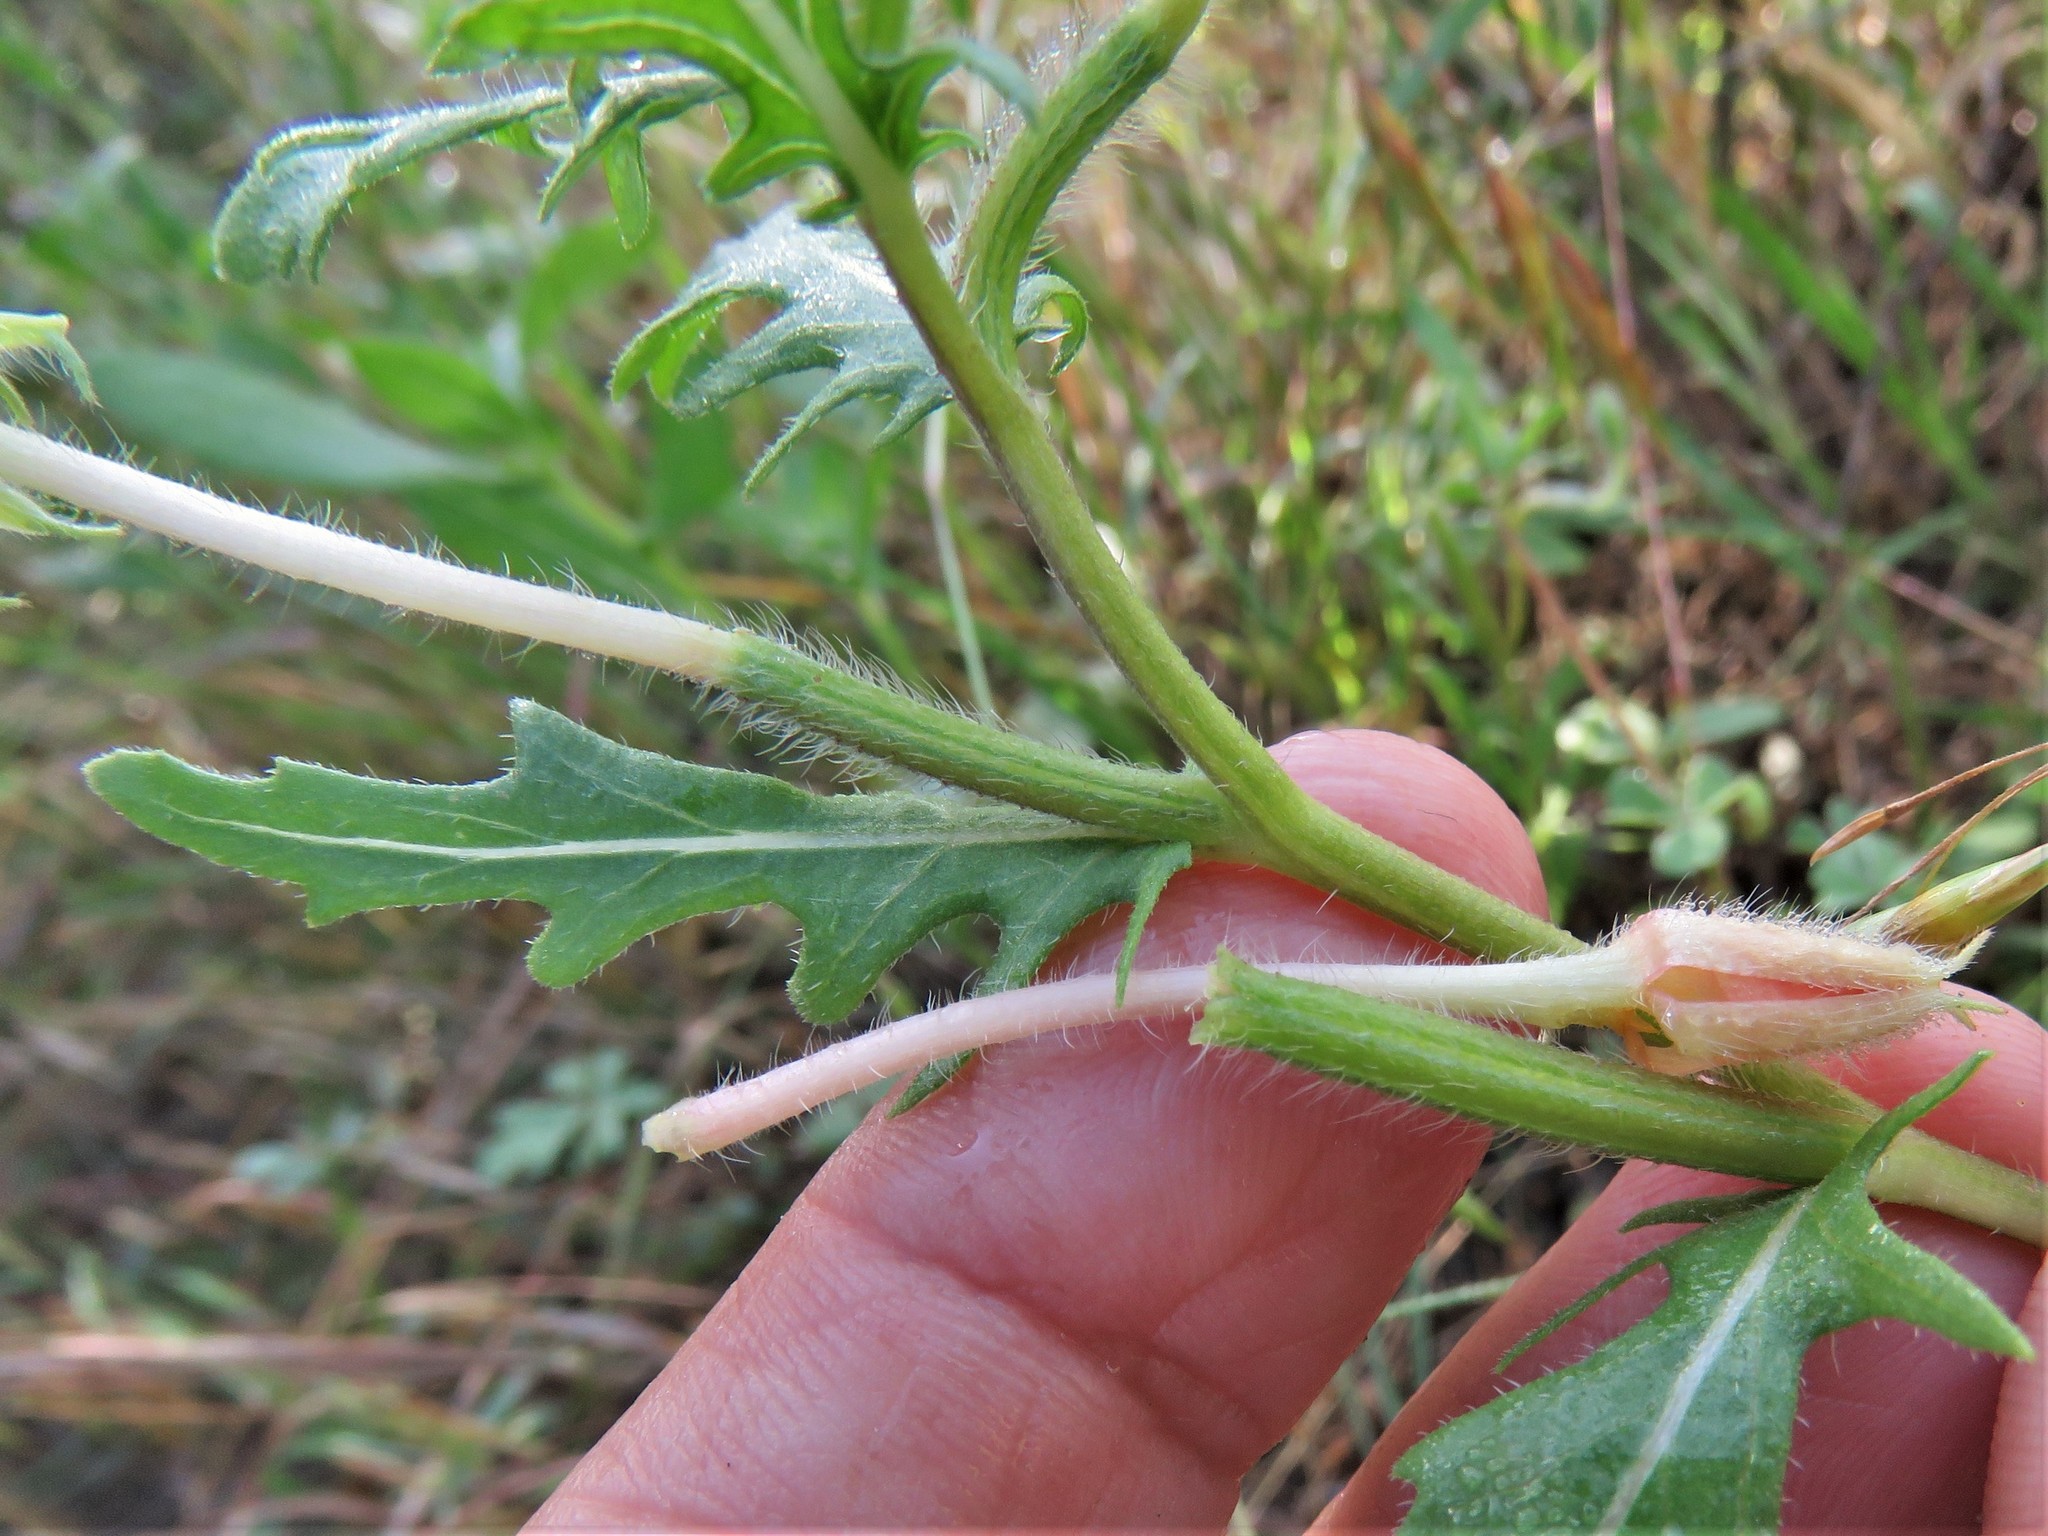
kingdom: Plantae
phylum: Tracheophyta
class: Magnoliopsida
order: Myrtales
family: Onagraceae
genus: Oenothera
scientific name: Oenothera laciniata
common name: Cut-leaved evening-primrose
